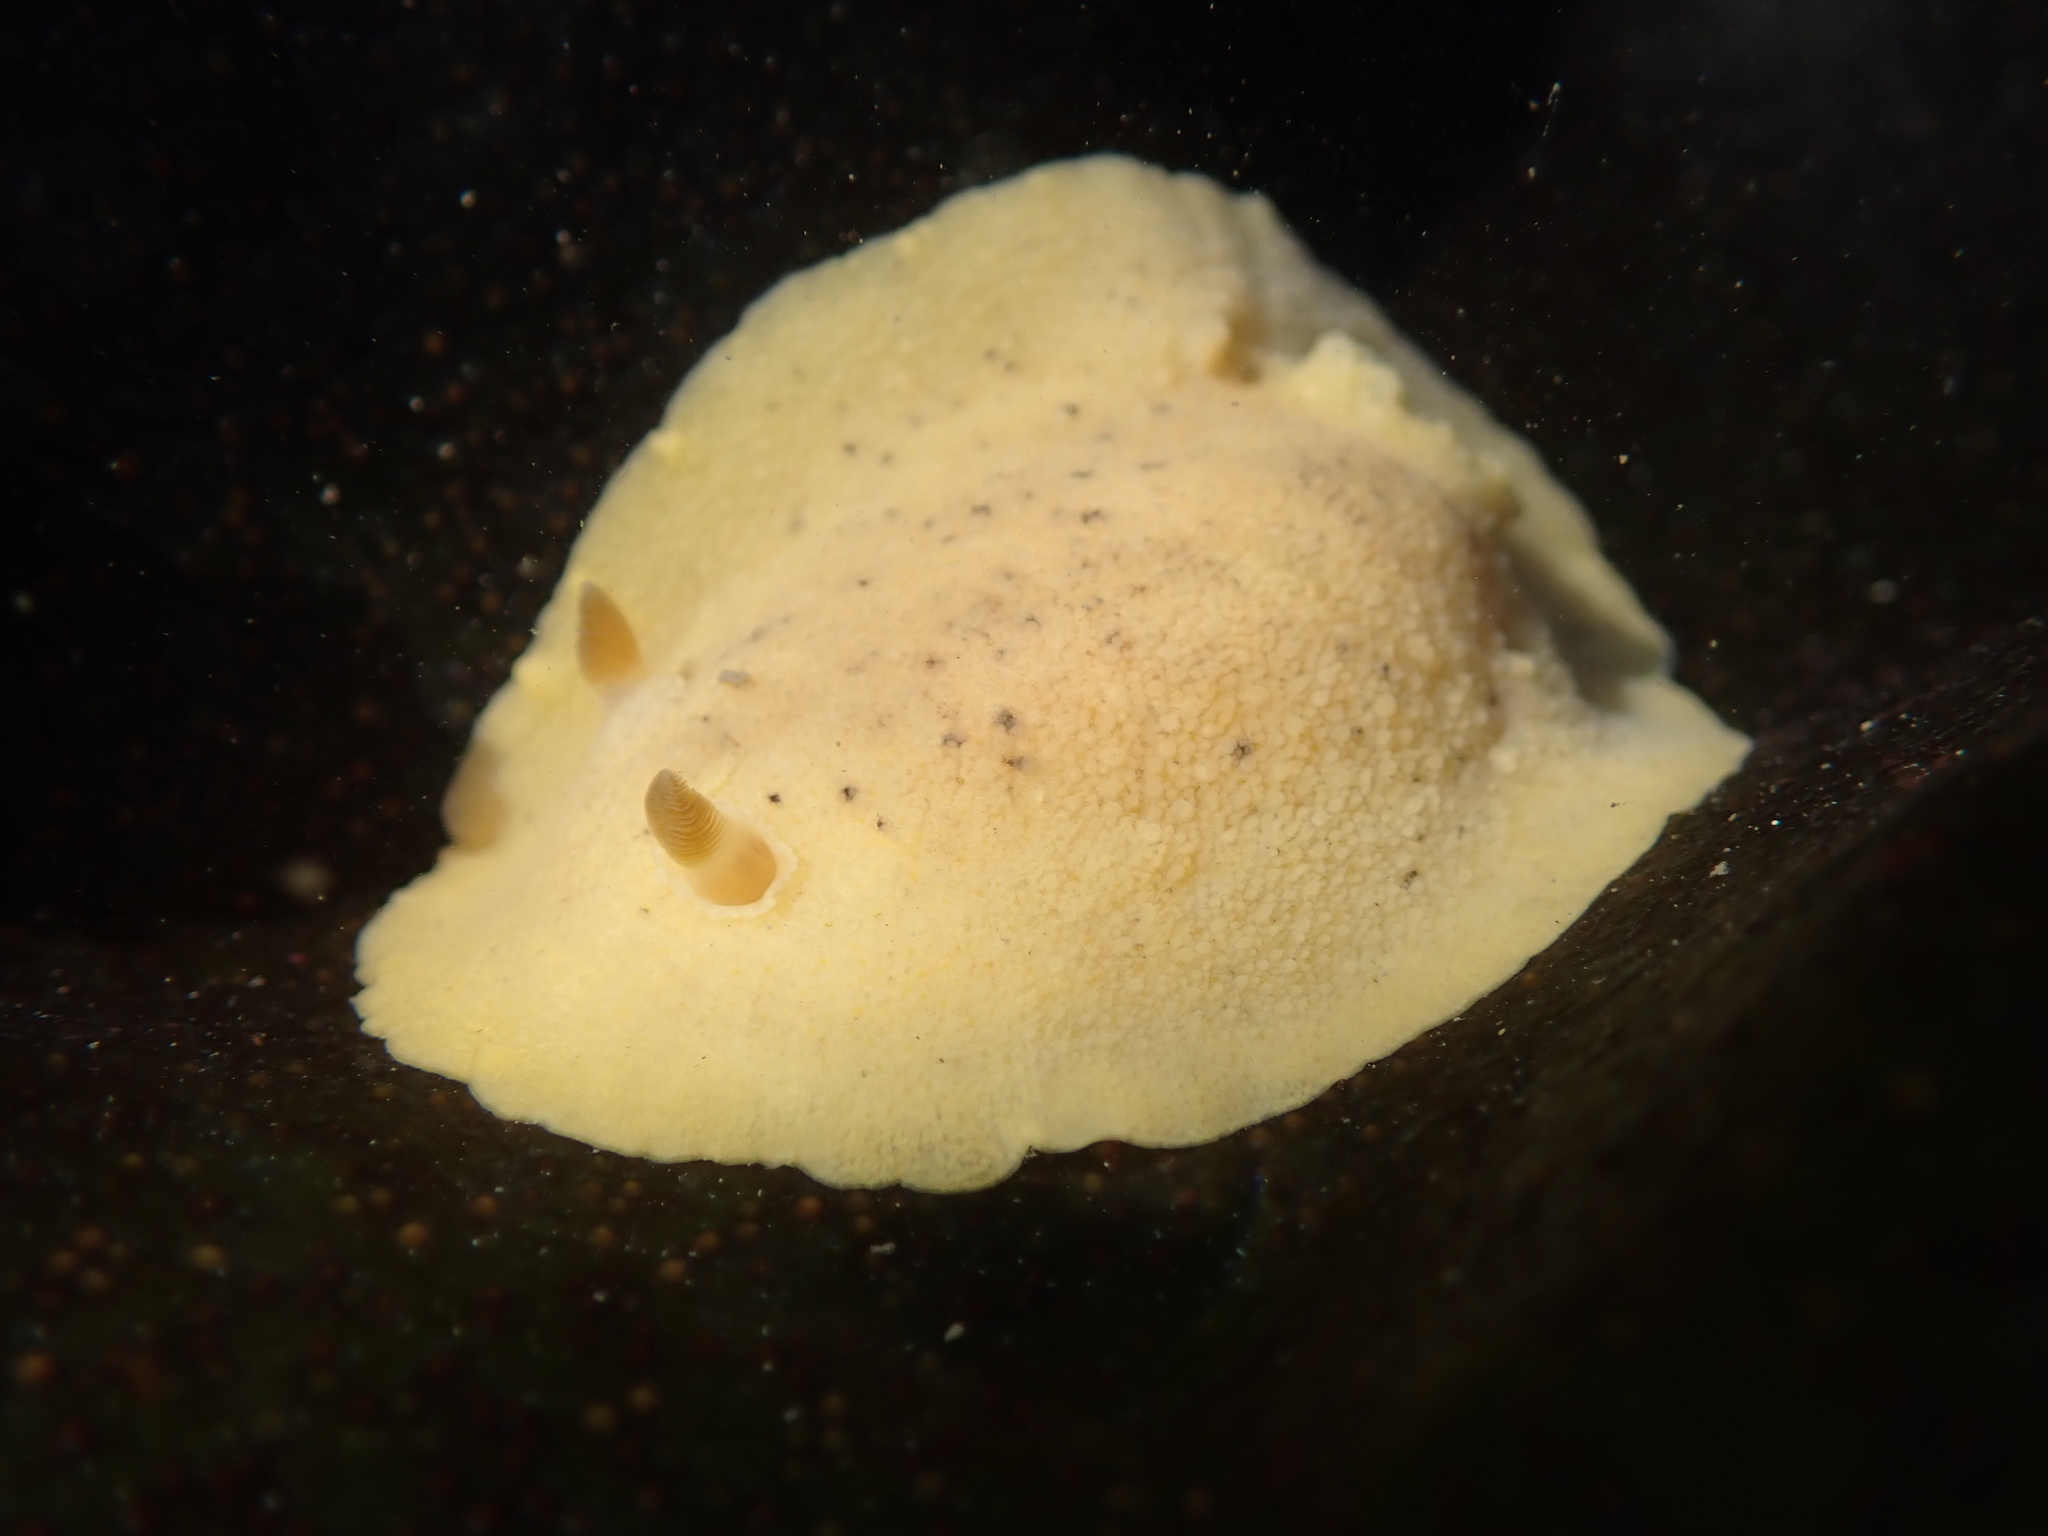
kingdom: Animalia
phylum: Mollusca
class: Gastropoda
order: Nudibranchia
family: Discodorididae
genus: Geitodoris
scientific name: Geitodoris heathi
